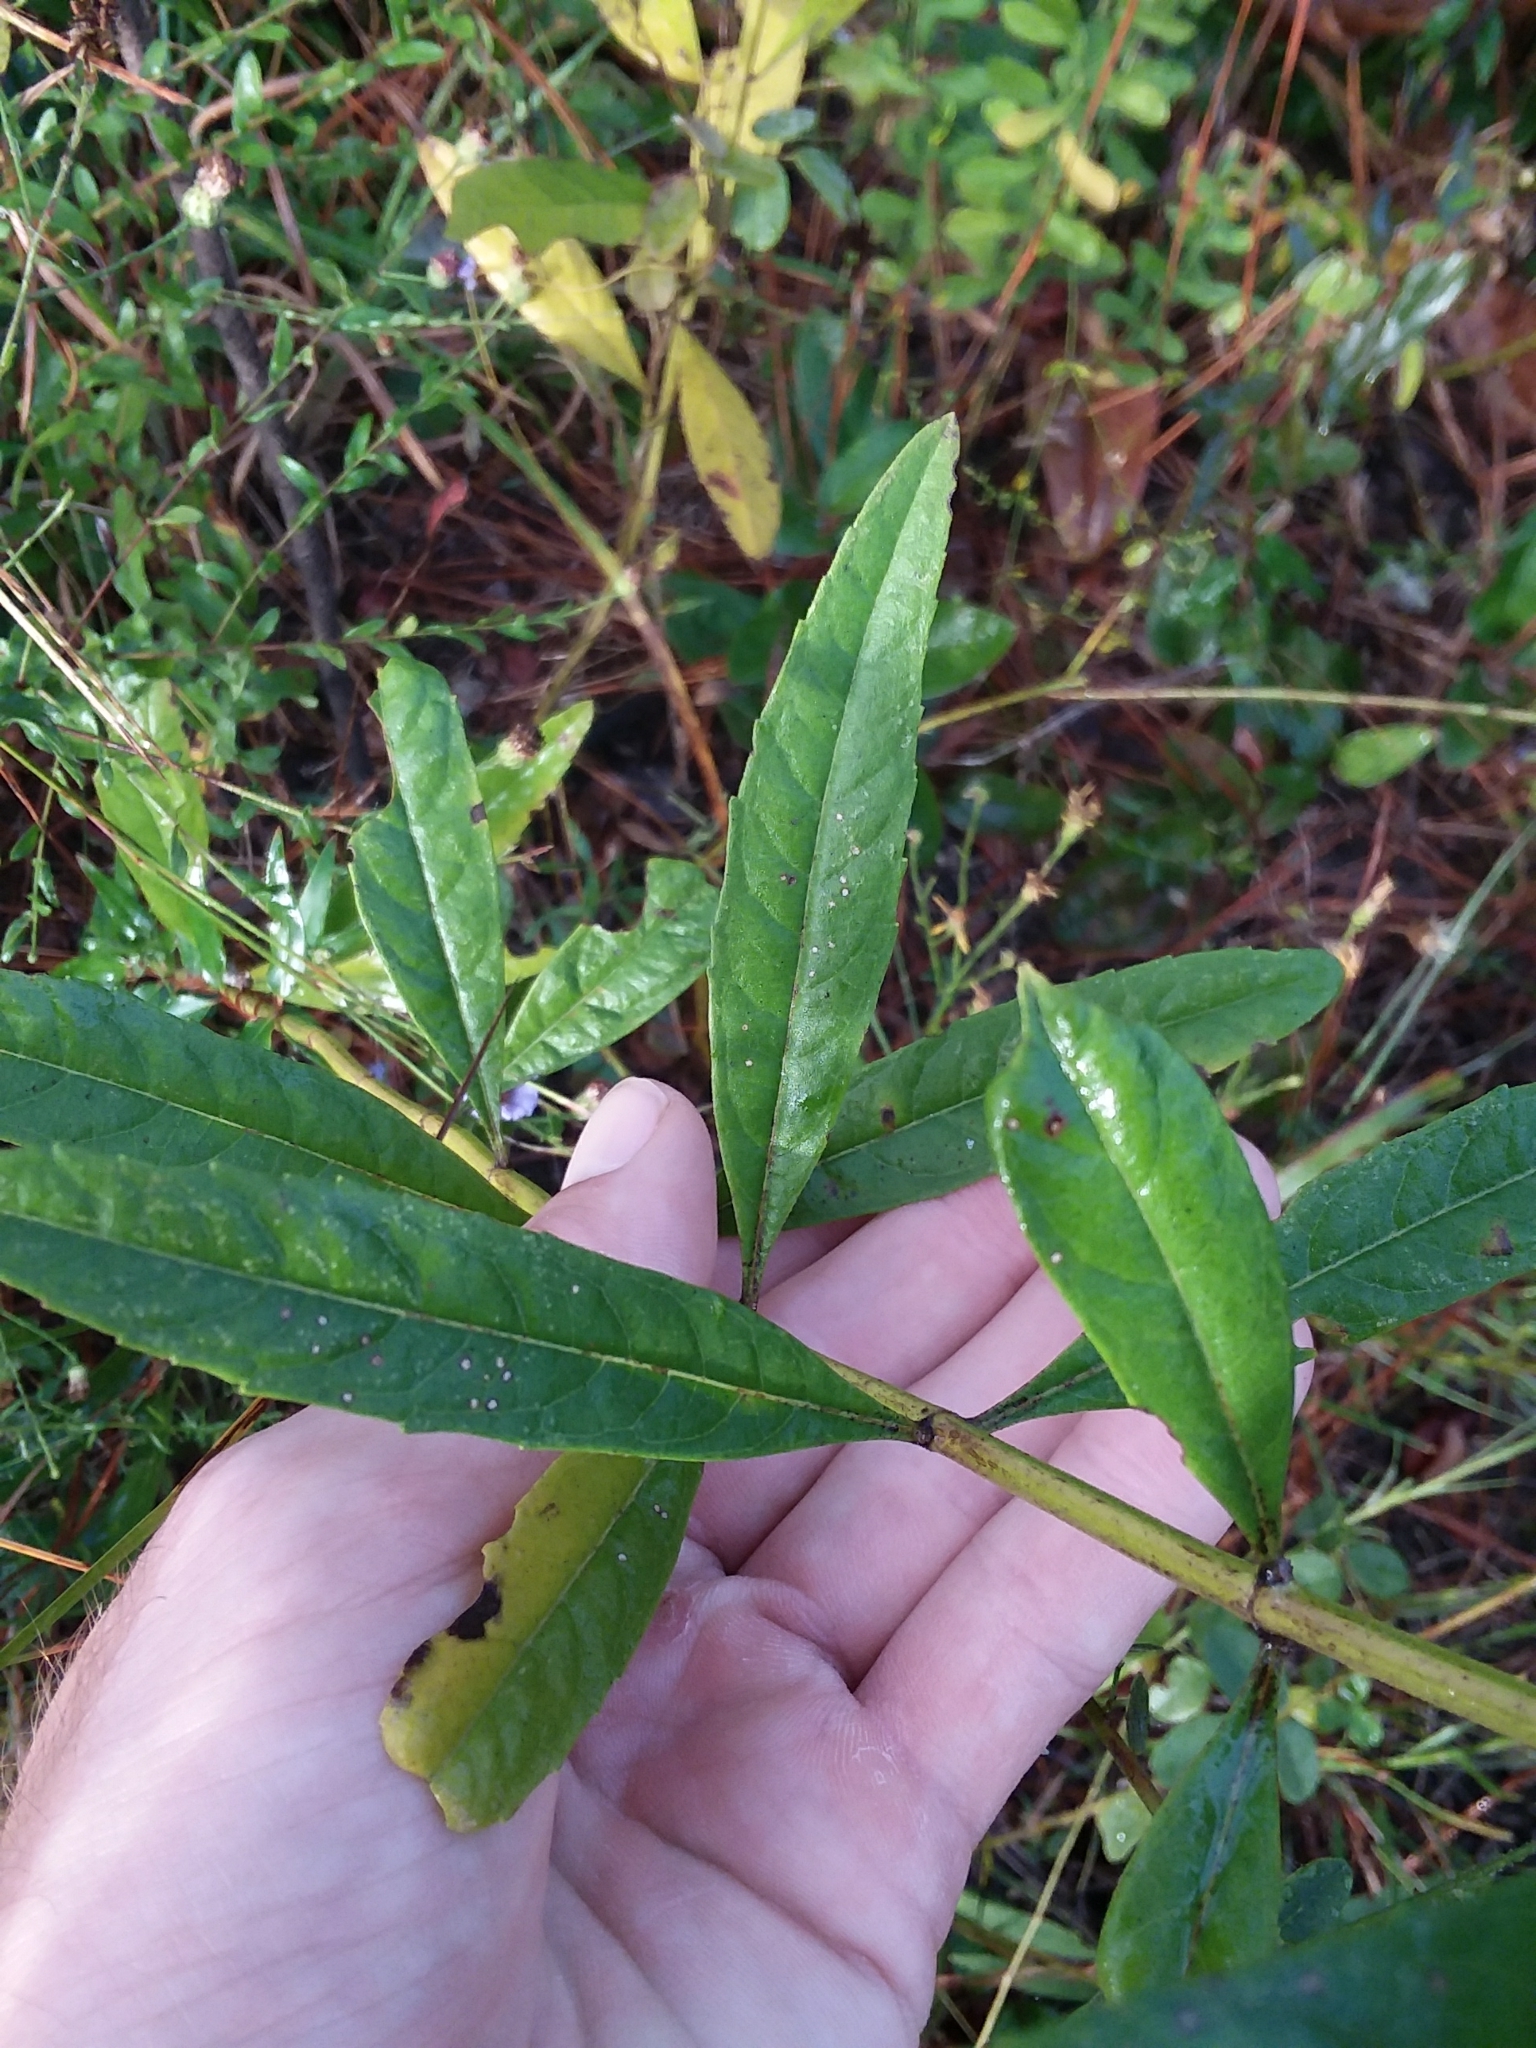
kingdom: Plantae
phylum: Tracheophyta
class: Magnoliopsida
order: Lamiales
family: Lamiaceae
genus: Salvia
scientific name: Salvia azurea
